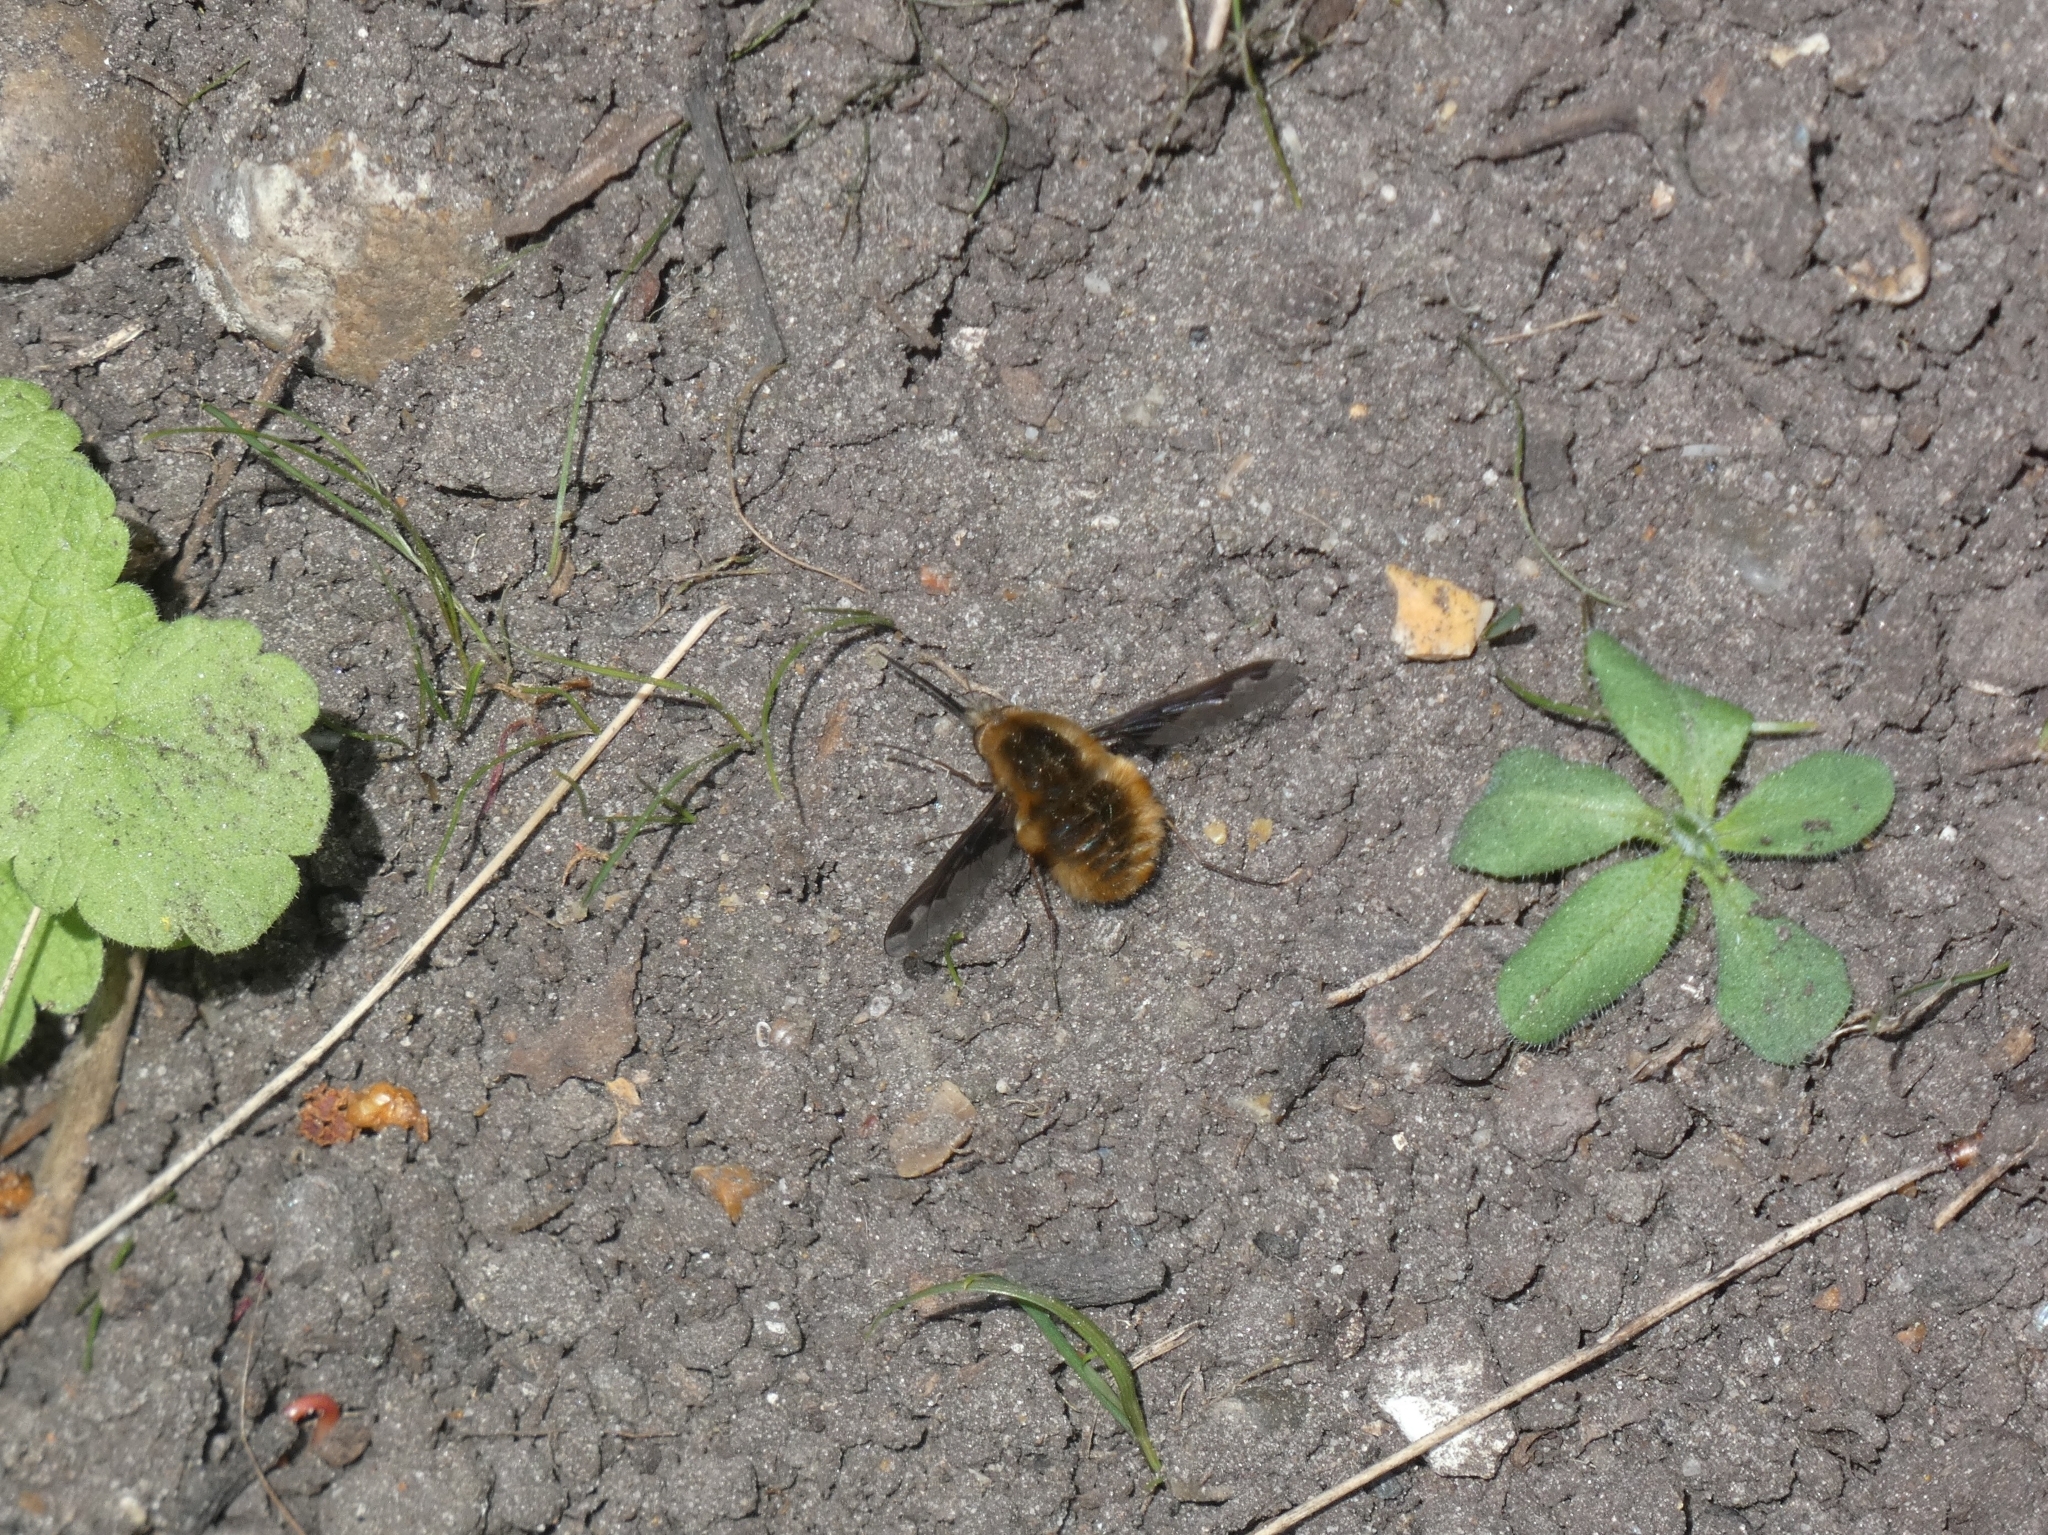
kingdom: Animalia
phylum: Arthropoda
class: Insecta
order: Diptera
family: Bombyliidae
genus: Bombylius
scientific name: Bombylius major
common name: Bee fly
